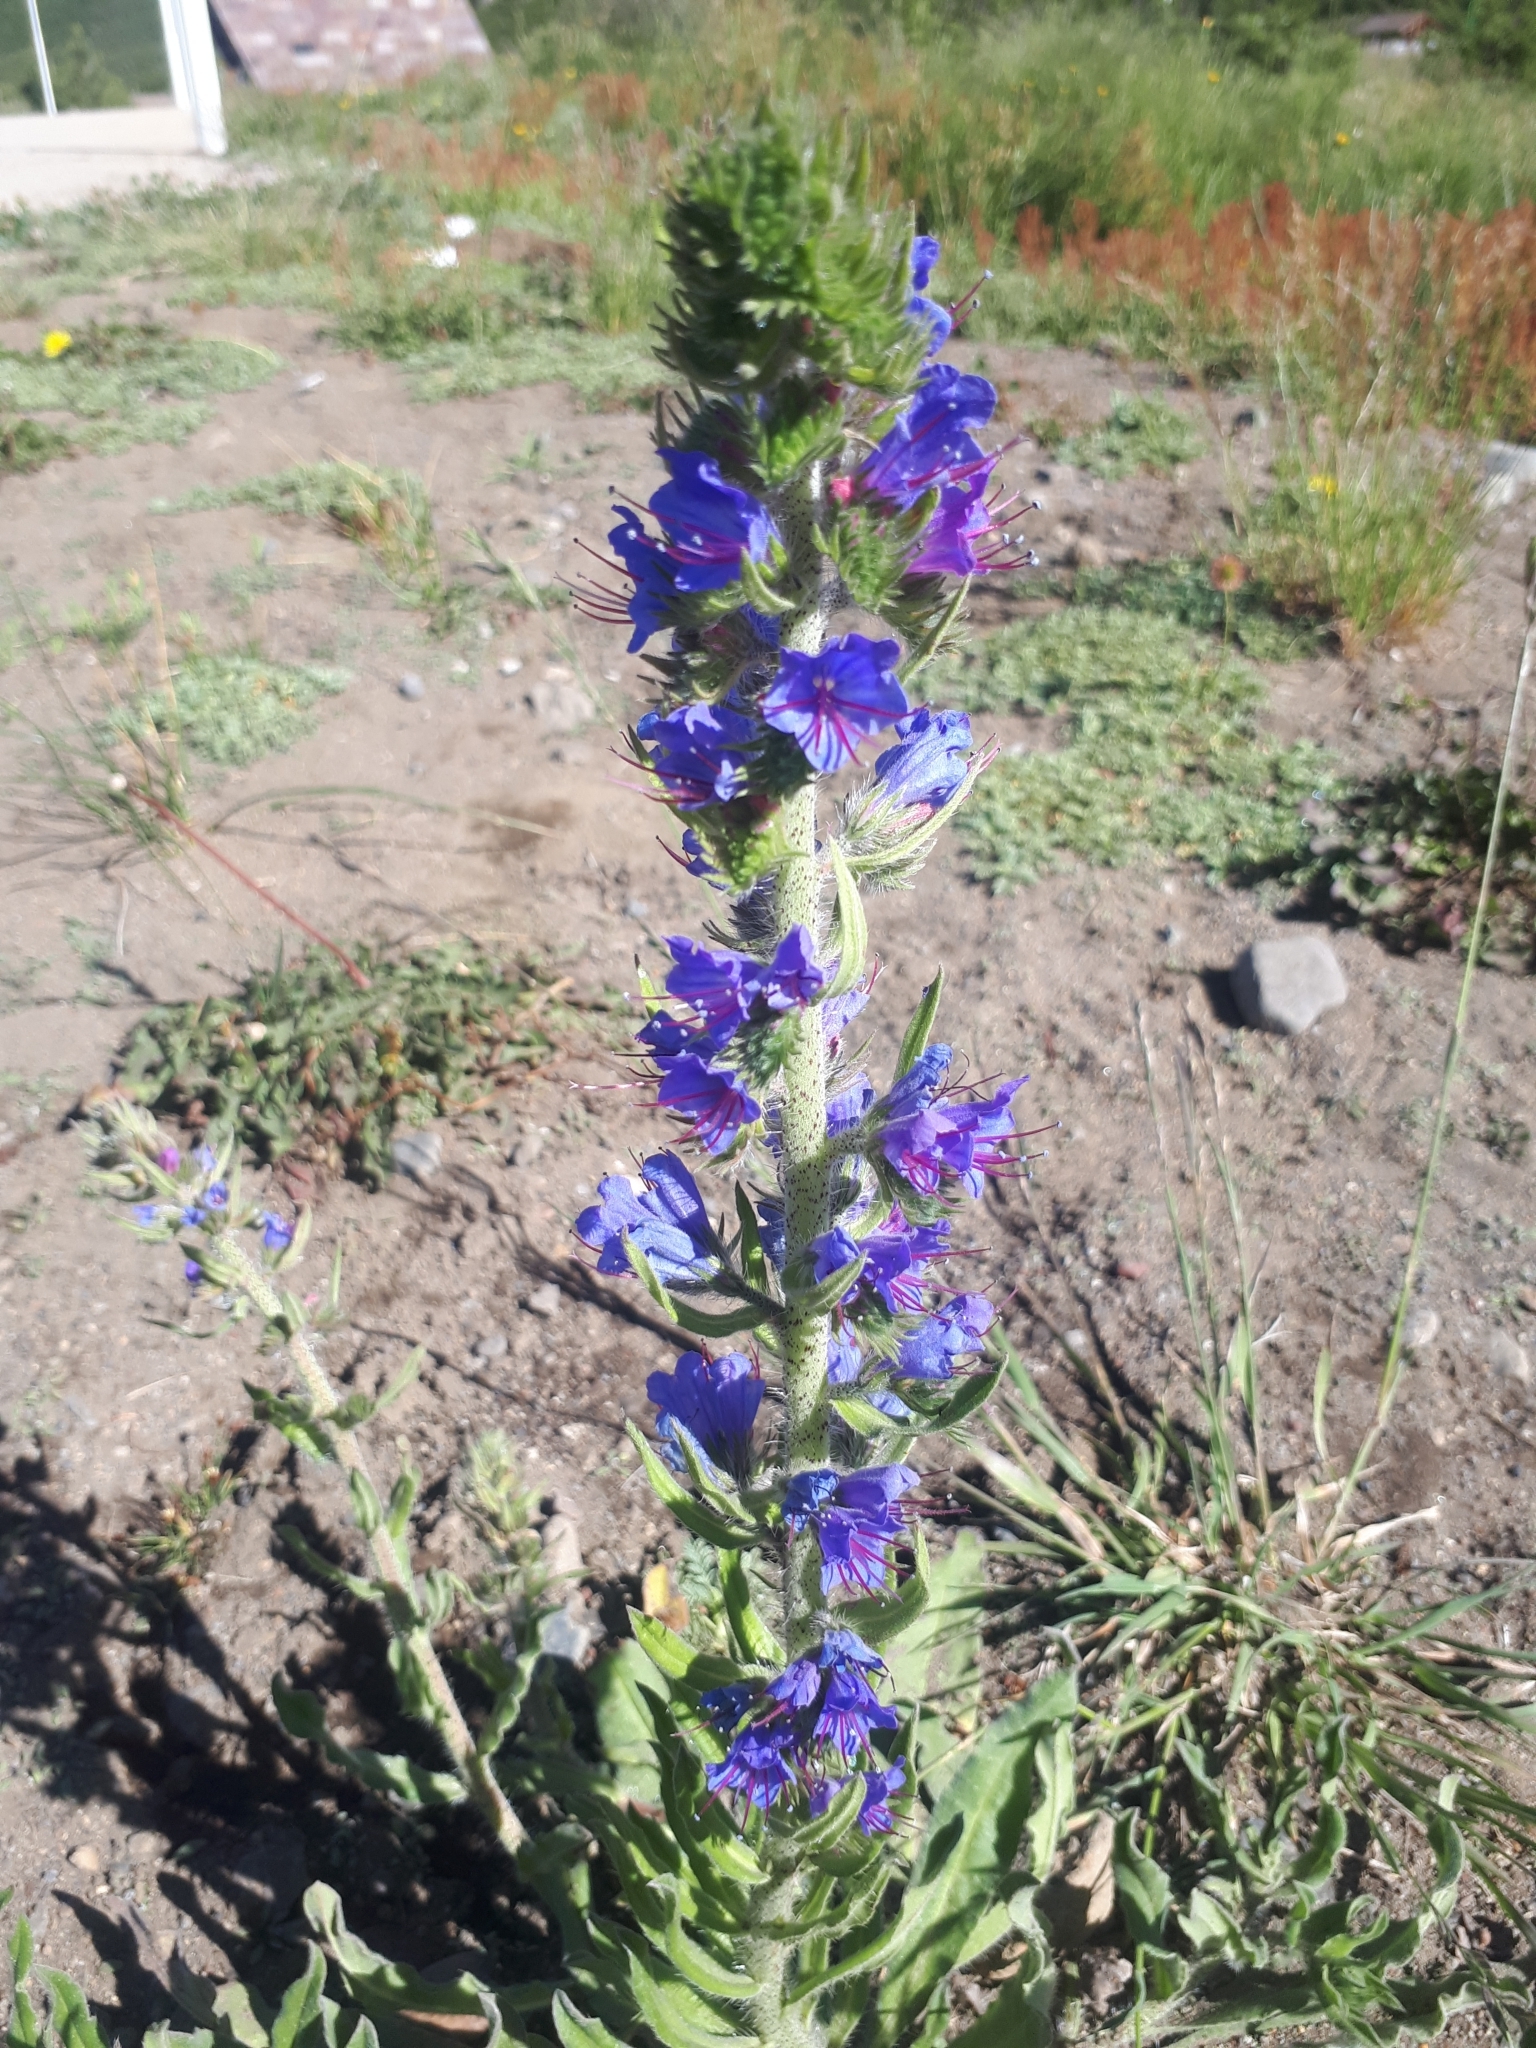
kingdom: Plantae
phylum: Tracheophyta
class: Magnoliopsida
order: Boraginales
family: Boraginaceae
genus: Echium
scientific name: Echium vulgare
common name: Common viper's bugloss
